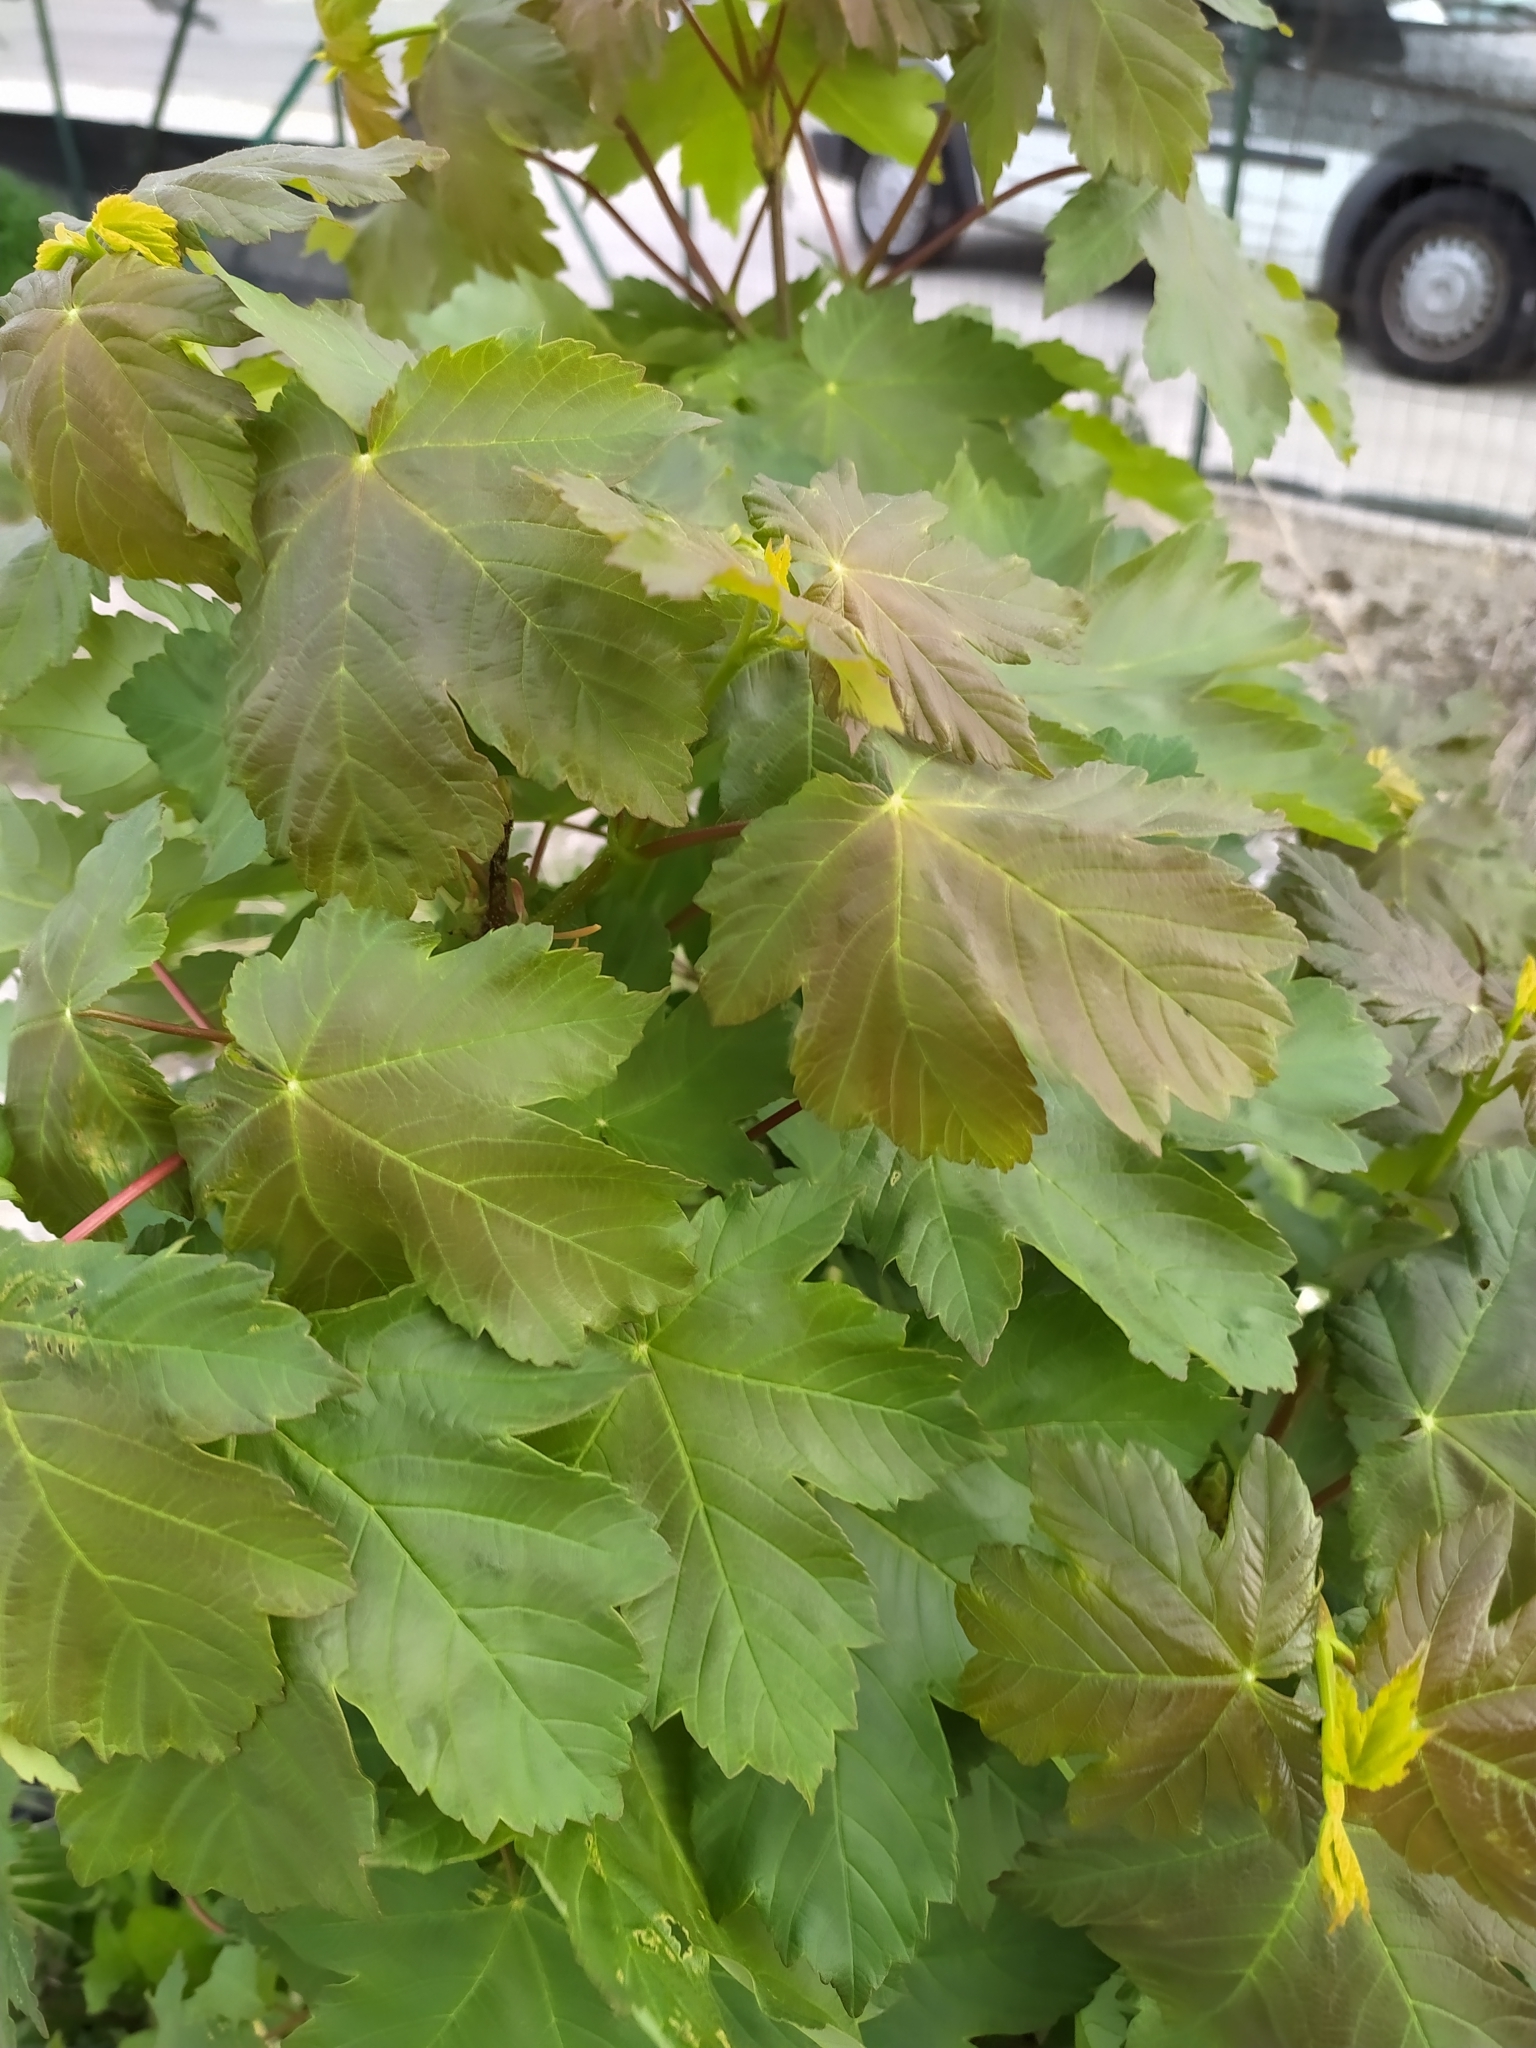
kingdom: Plantae
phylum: Tracheophyta
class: Magnoliopsida
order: Sapindales
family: Sapindaceae
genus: Acer
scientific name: Acer pseudoplatanus
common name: Sycamore
